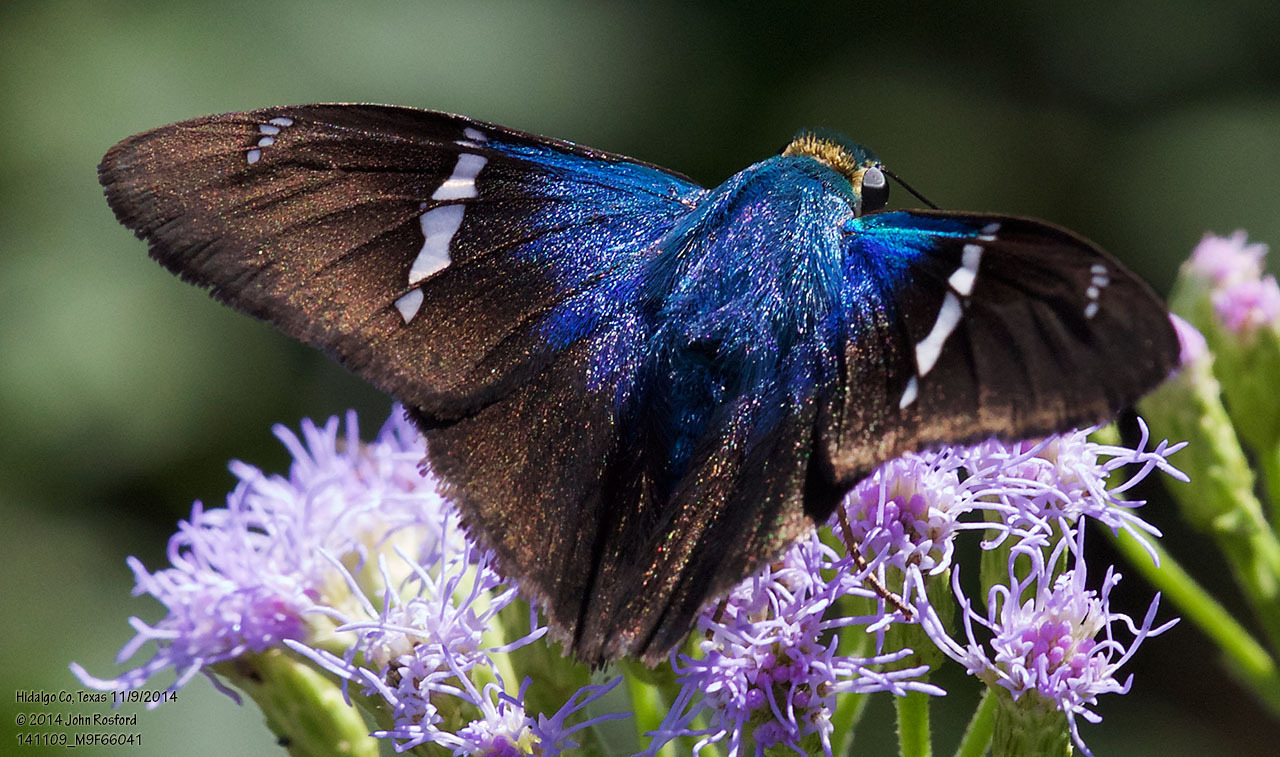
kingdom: Animalia
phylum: Arthropoda
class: Insecta
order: Lepidoptera
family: Hesperiidae
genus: Astraptes
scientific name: Astraptes fulgerator
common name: Two-barred flasher
